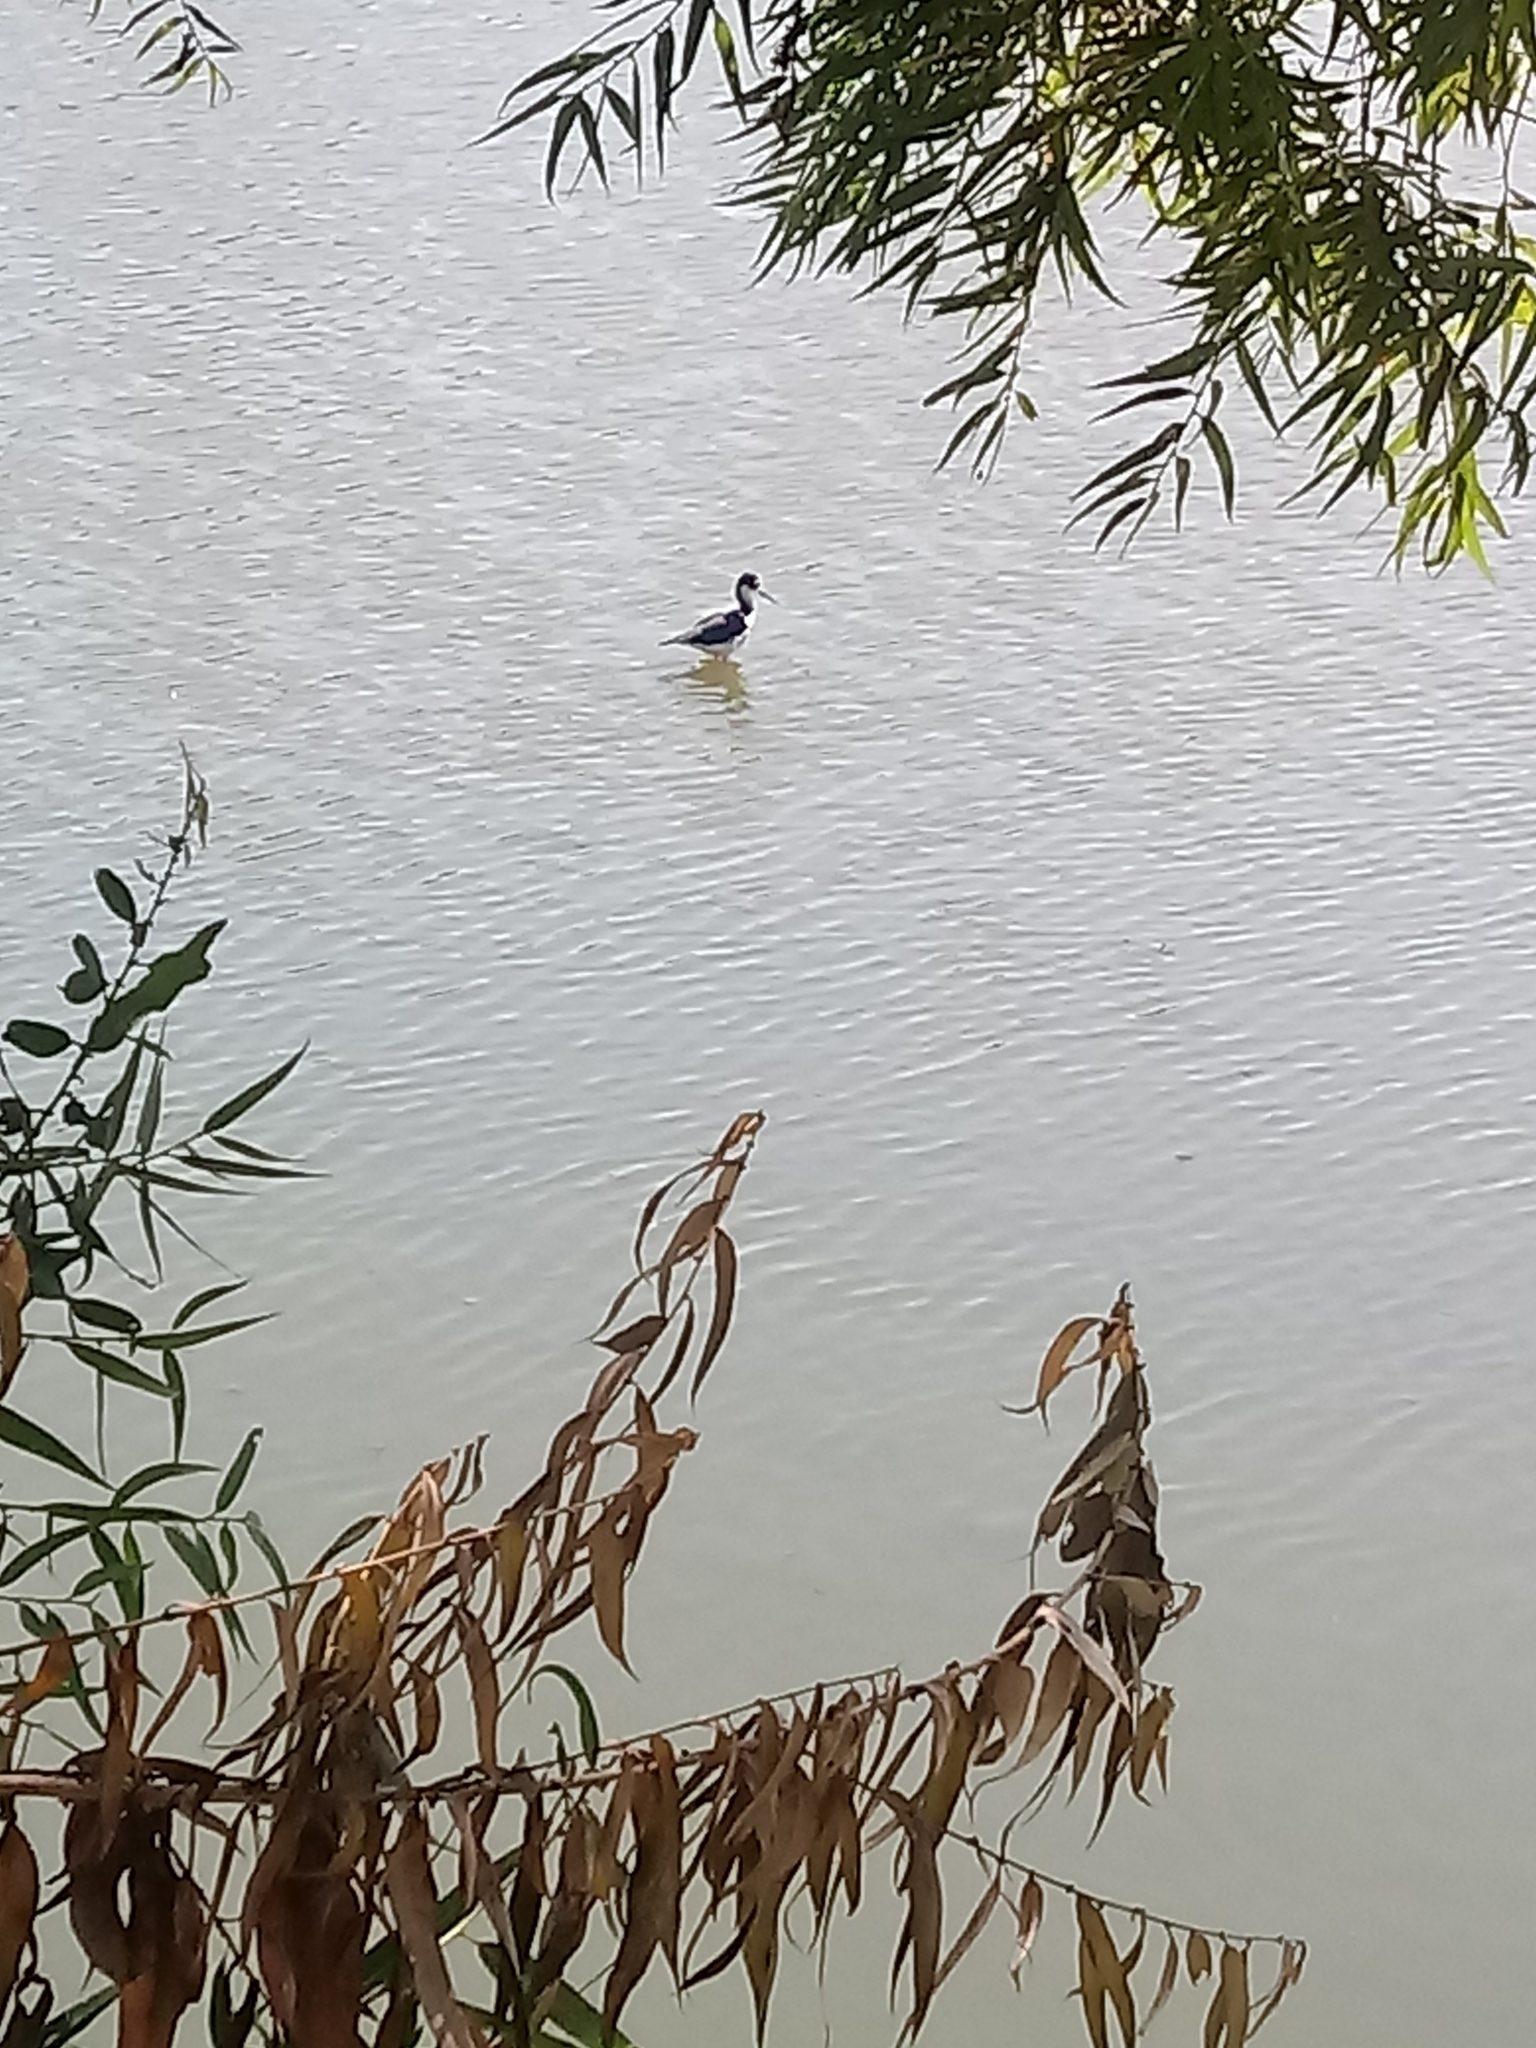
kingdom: Animalia
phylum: Chordata
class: Aves
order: Charadriiformes
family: Recurvirostridae
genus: Himantopus
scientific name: Himantopus mexicanus
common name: Black-necked stilt
